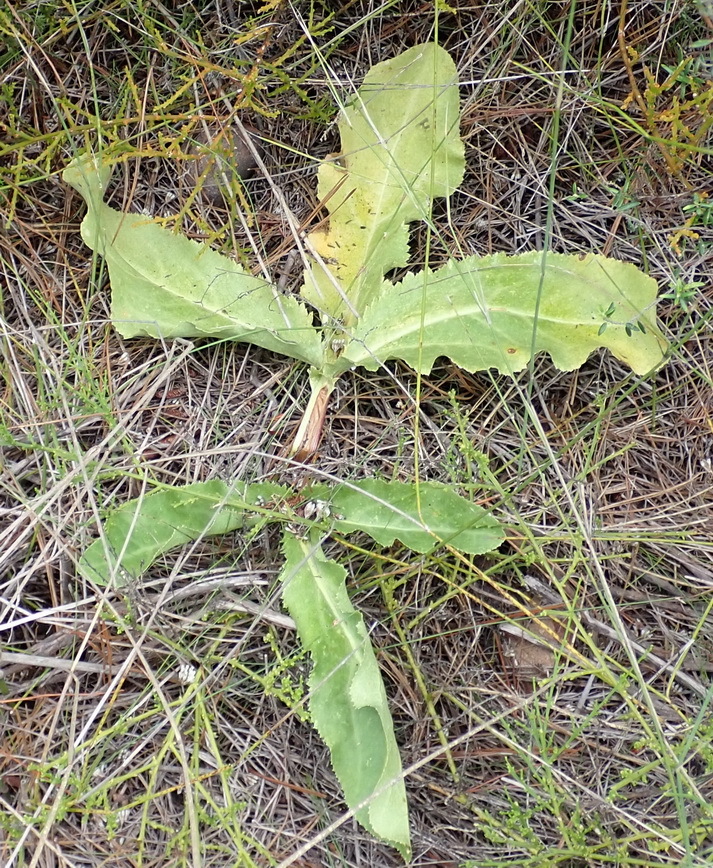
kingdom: Plantae
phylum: Tracheophyta
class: Magnoliopsida
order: Apiales
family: Apiaceae
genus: Lichtensteinia
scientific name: Lichtensteinia trifida
